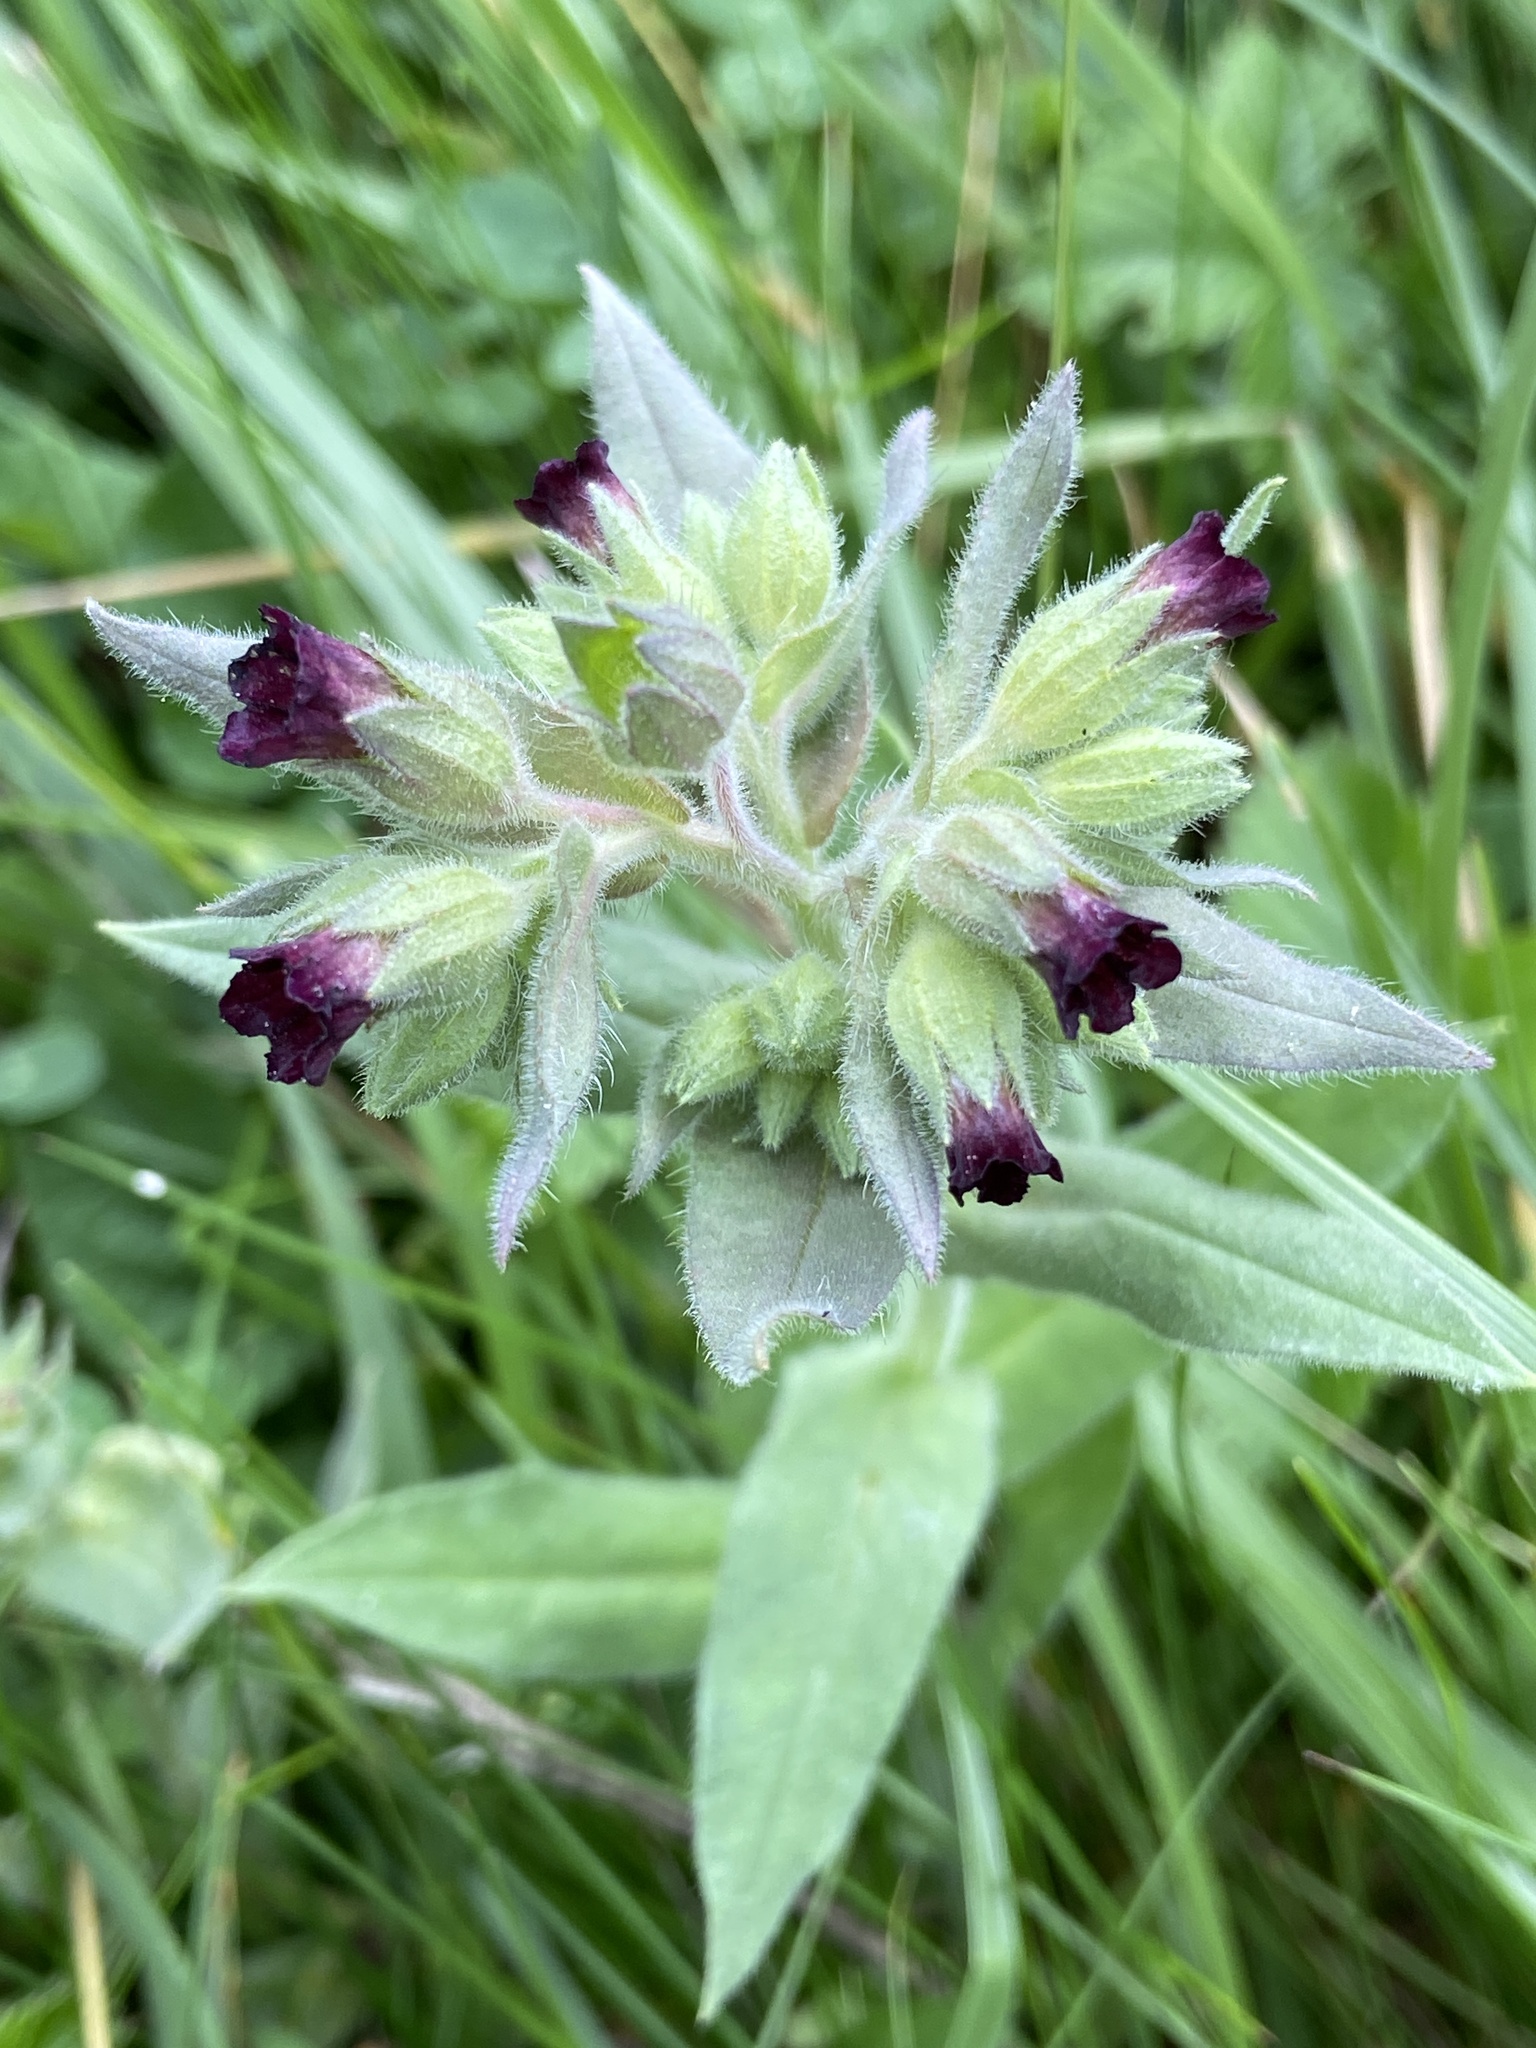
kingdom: Plantae
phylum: Tracheophyta
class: Magnoliopsida
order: Boraginales
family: Boraginaceae
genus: Nonea
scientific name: Nonea pulla
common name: Brown nonea
